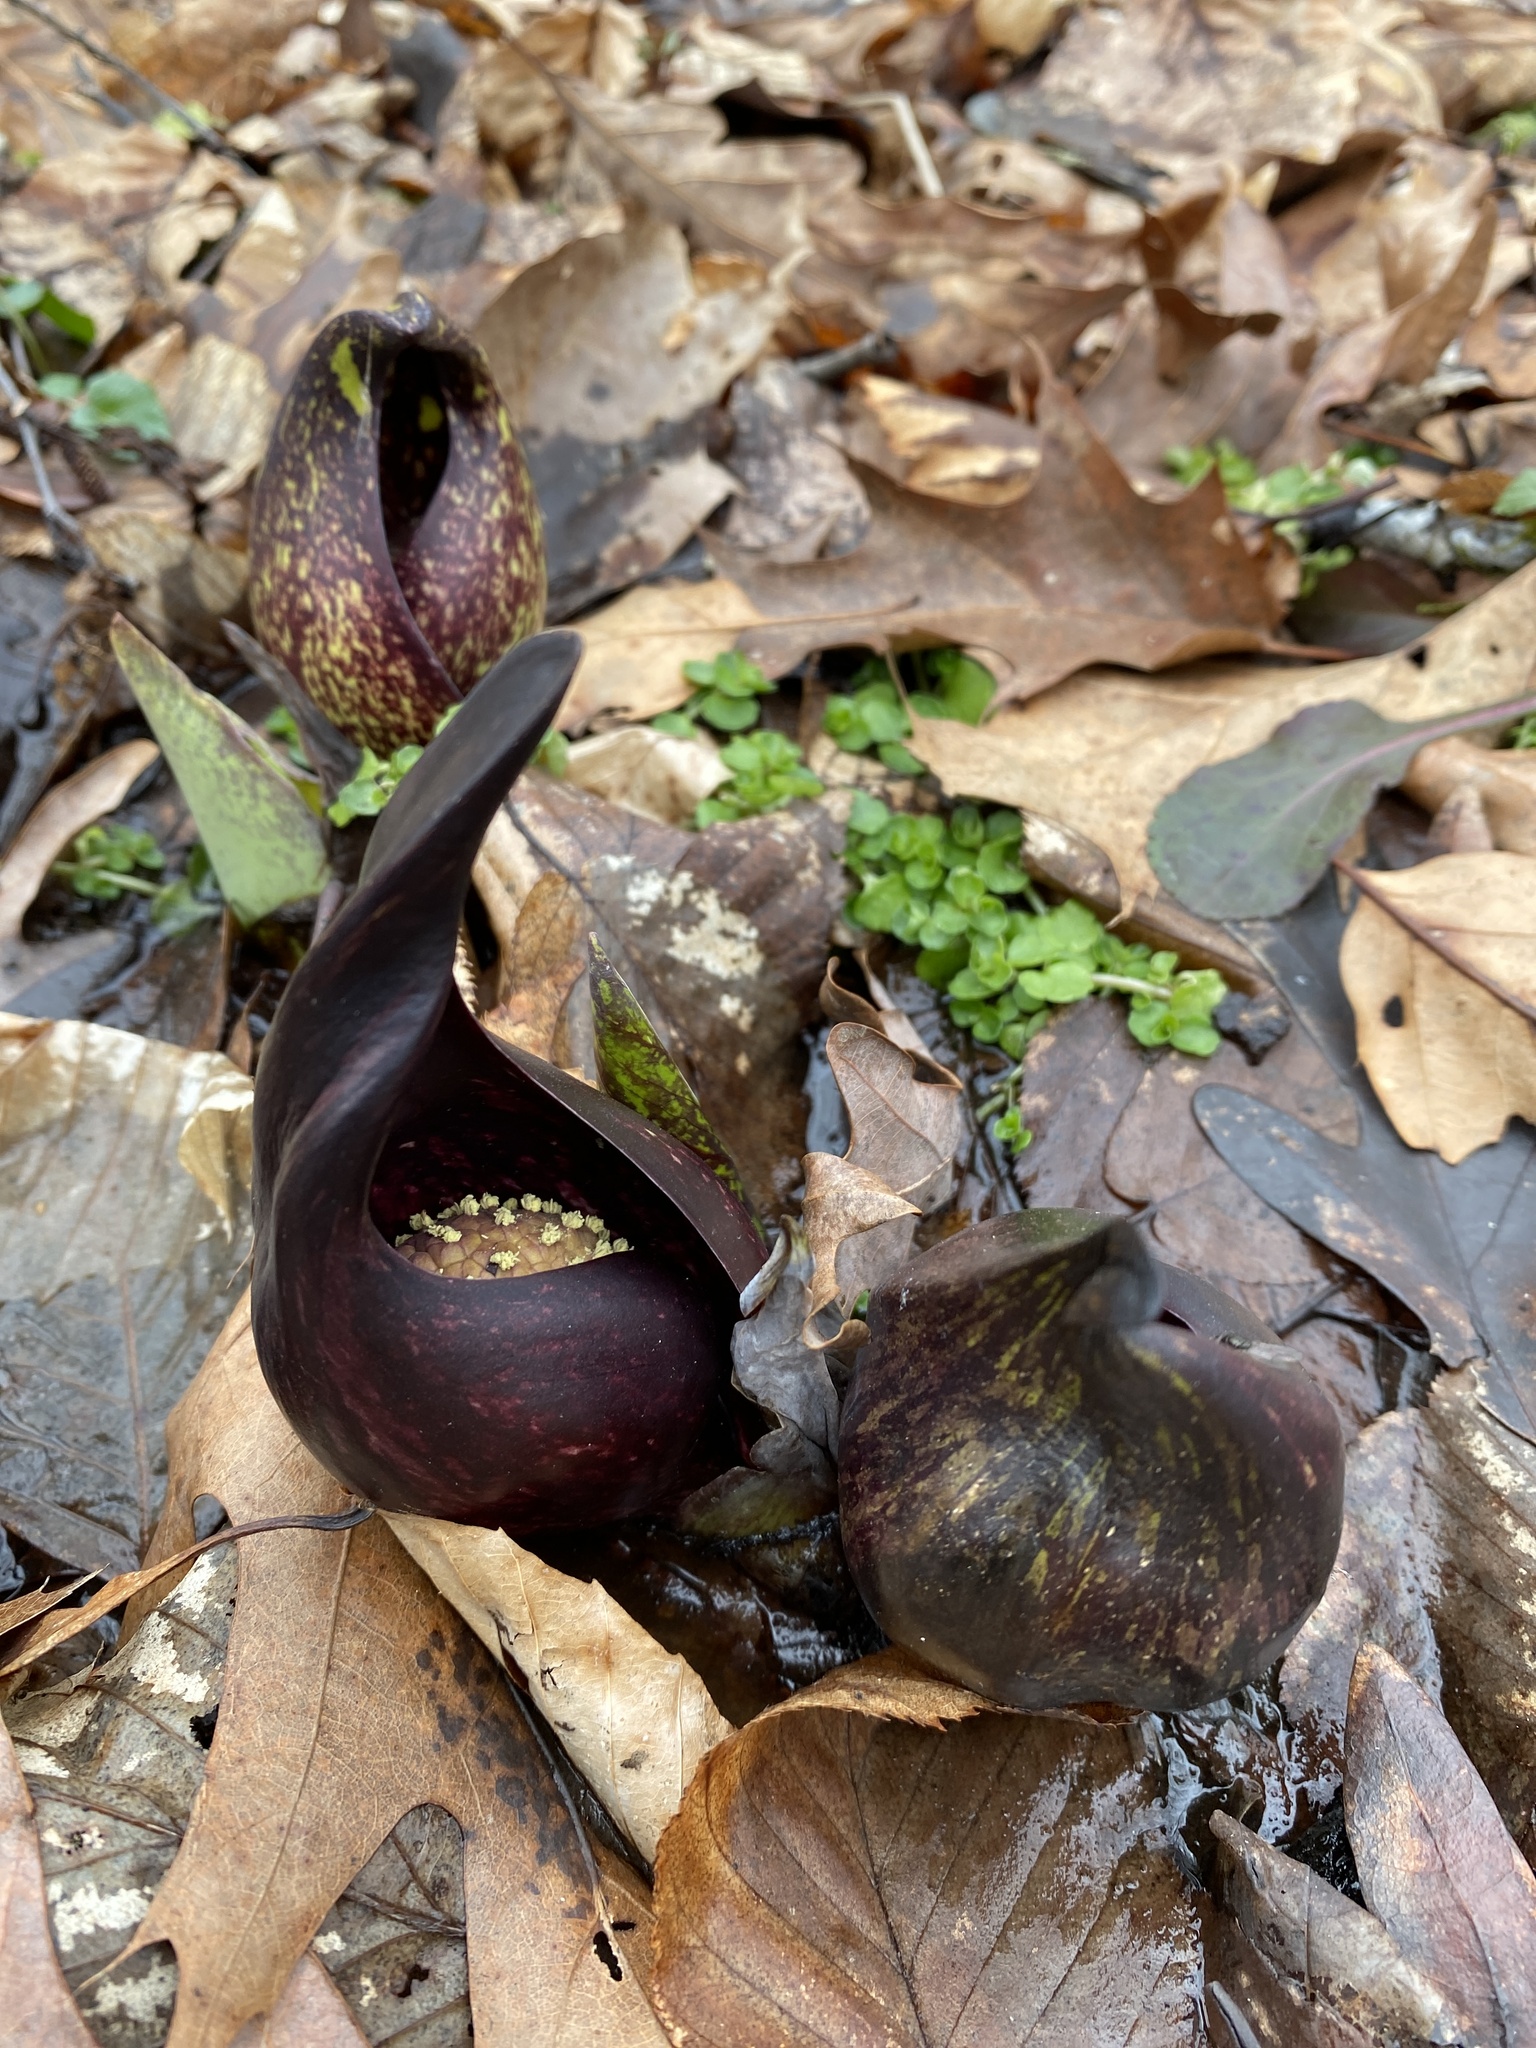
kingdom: Plantae
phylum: Tracheophyta
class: Liliopsida
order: Alismatales
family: Araceae
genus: Symplocarpus
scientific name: Symplocarpus foetidus
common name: Eastern skunk cabbage
